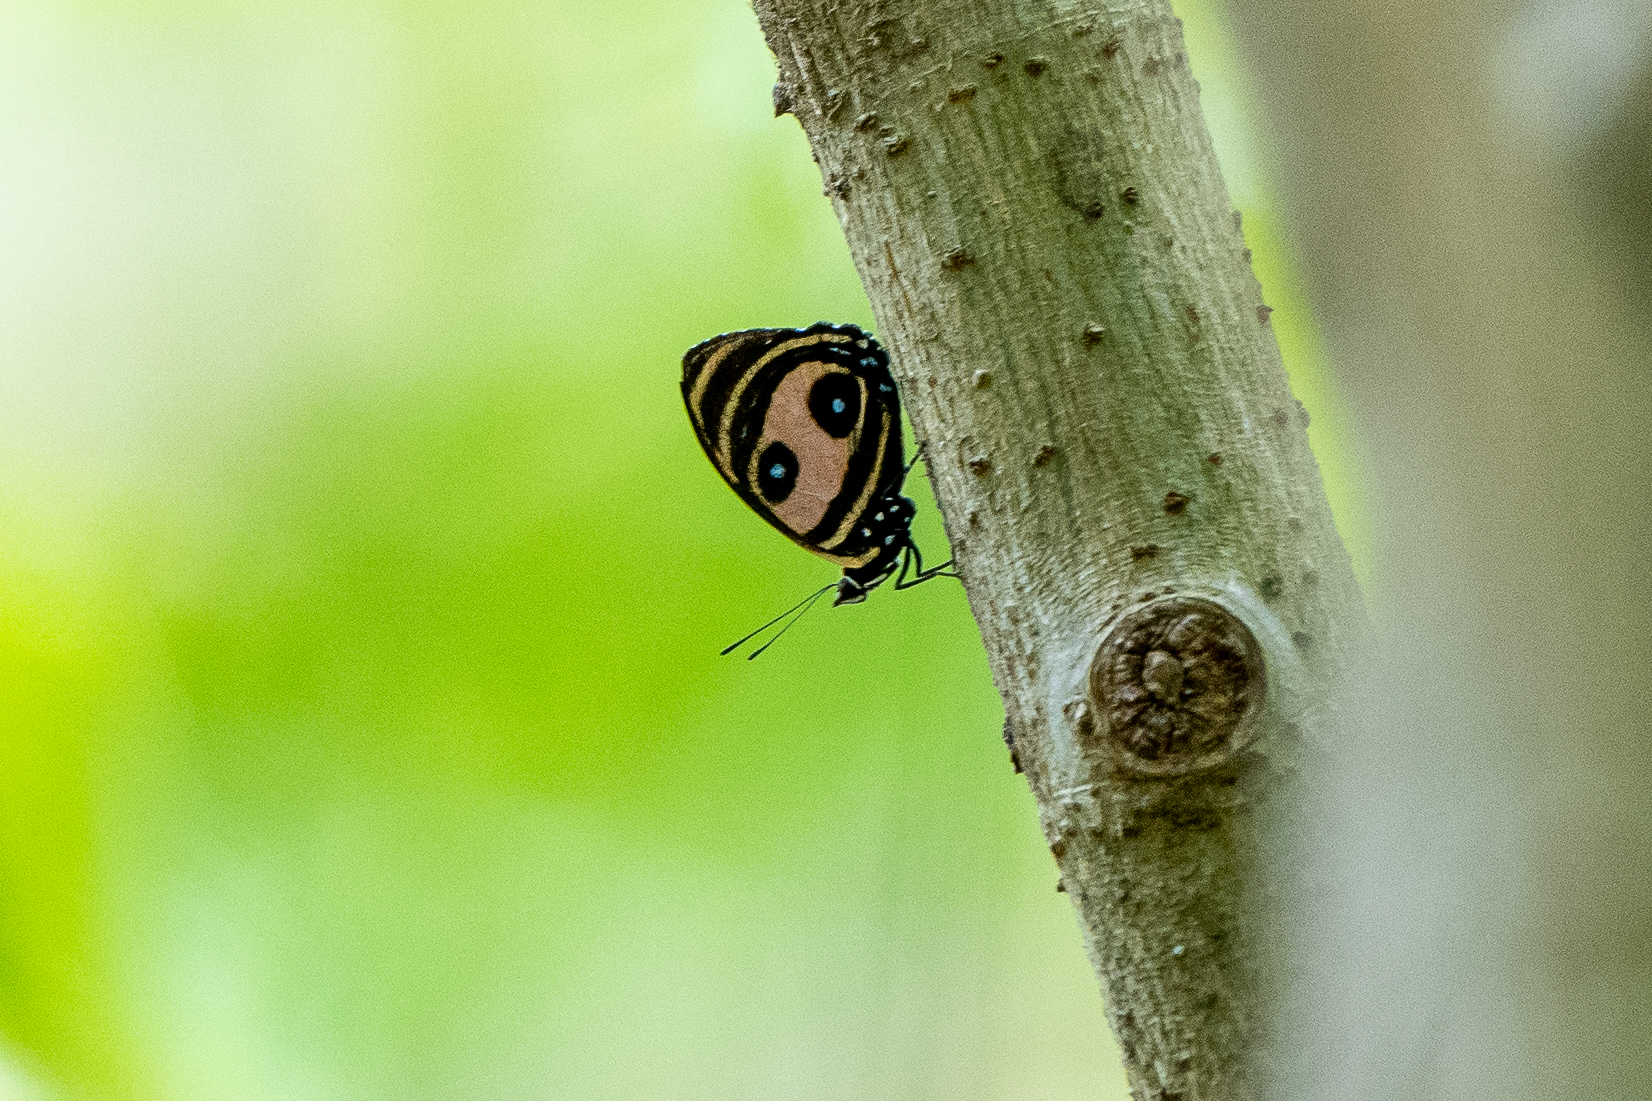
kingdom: Animalia
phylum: Arthropoda
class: Insecta
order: Lepidoptera
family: Nymphalidae
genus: Catagramma
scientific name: Catagramma Callicore pitheas
